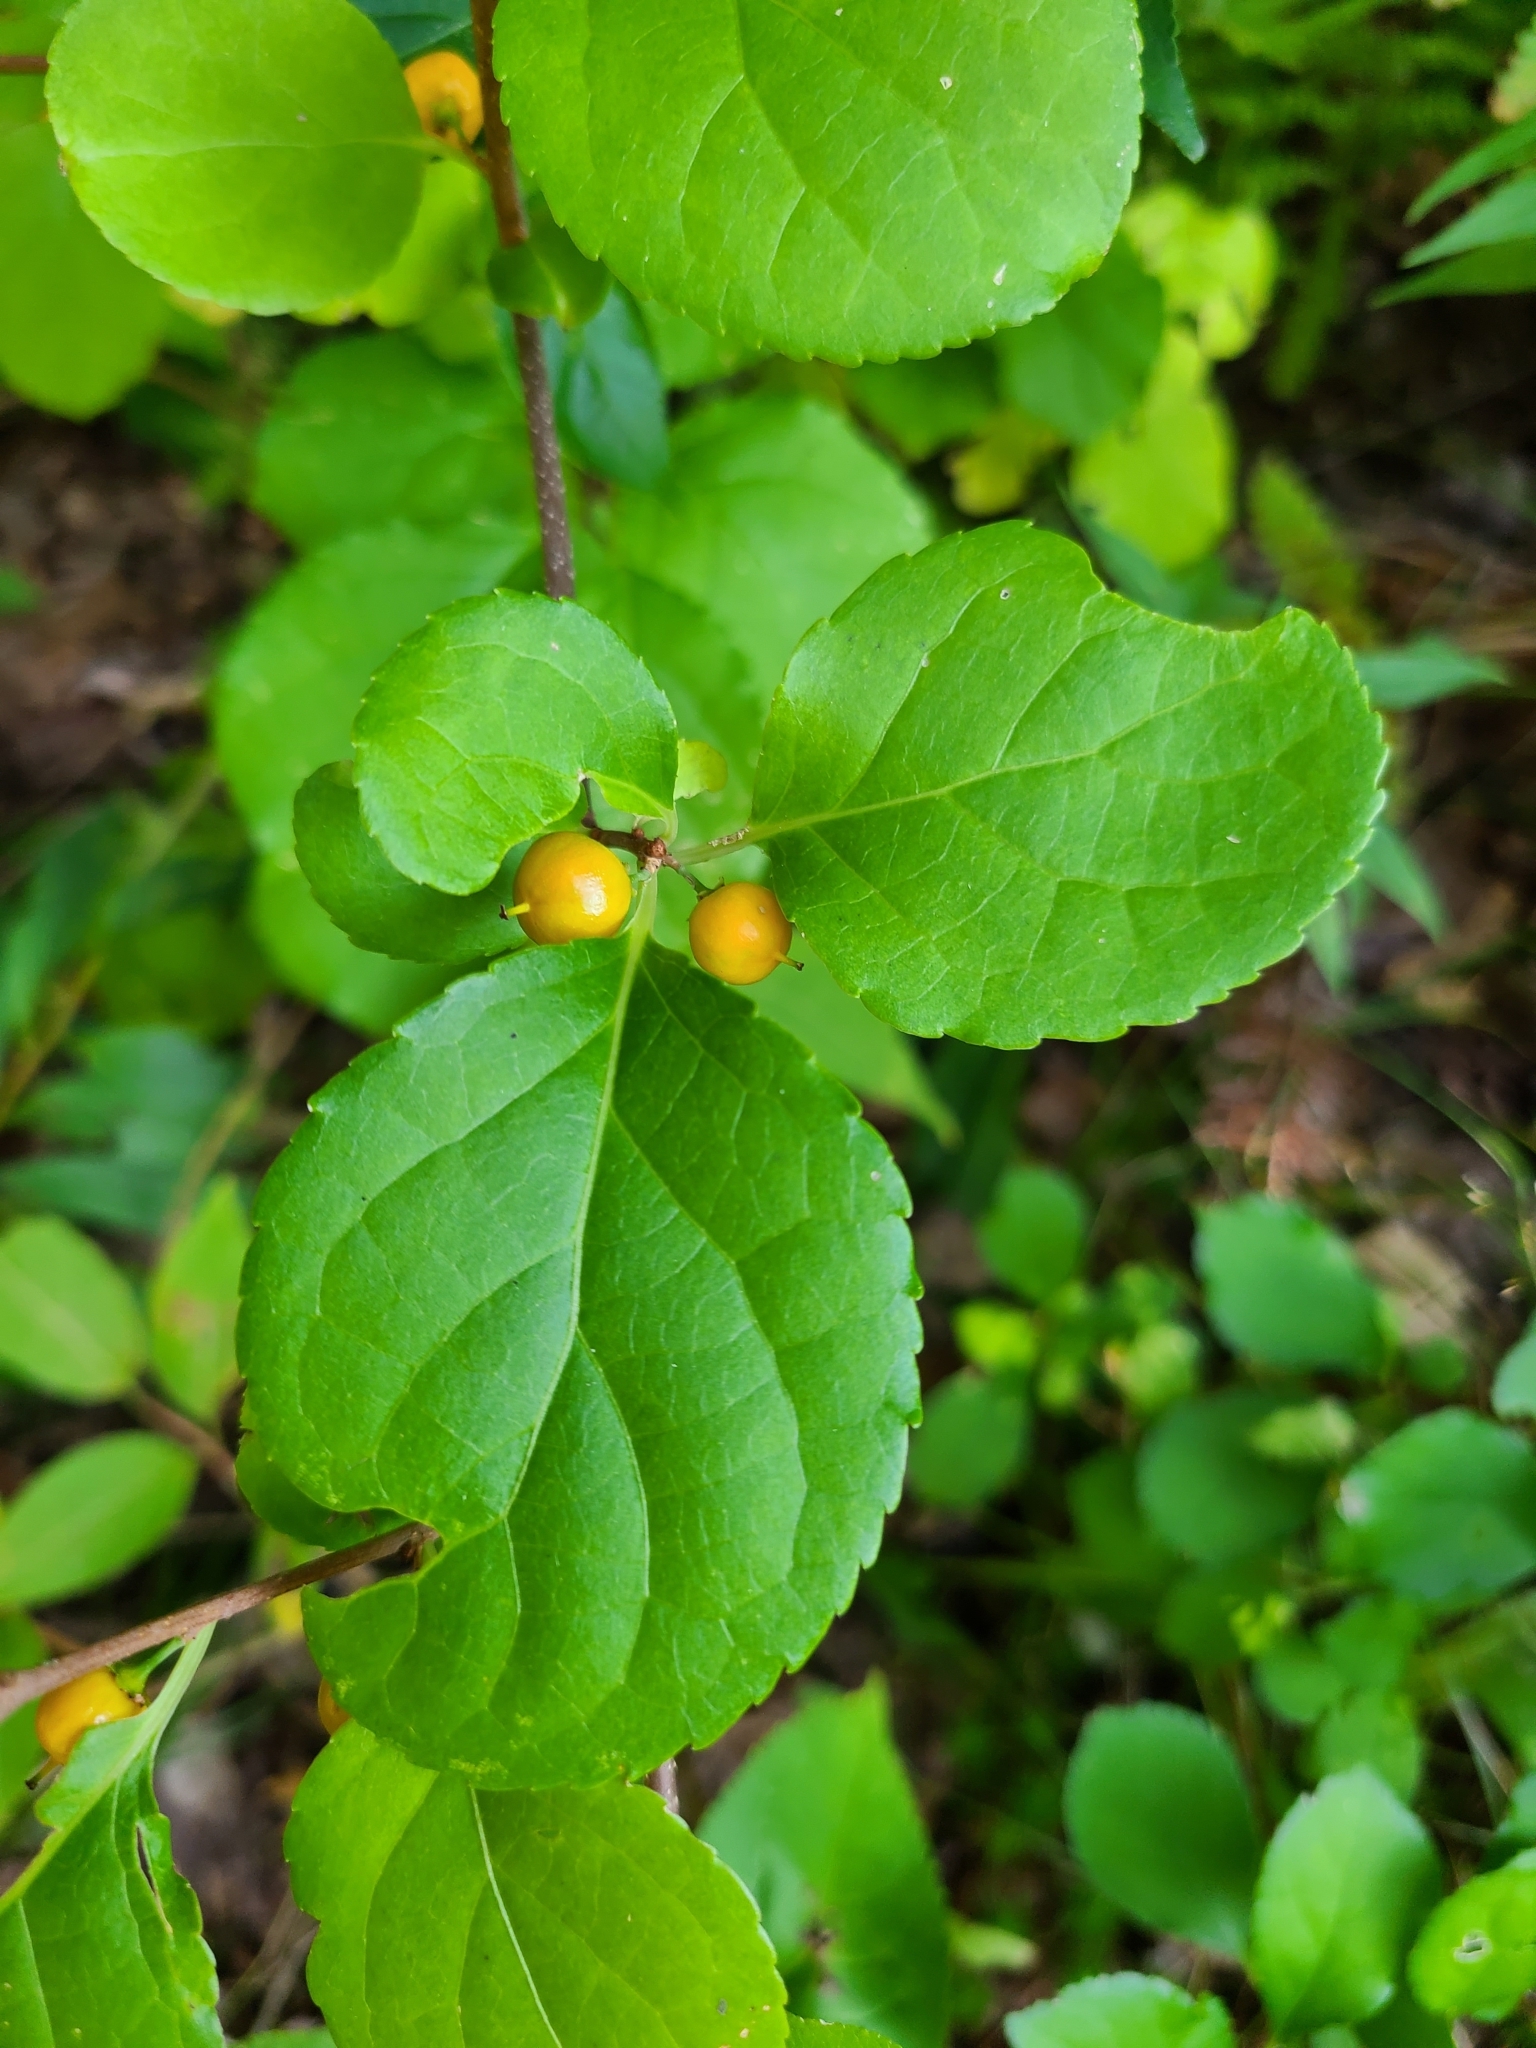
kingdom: Plantae
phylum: Tracheophyta
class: Magnoliopsida
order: Celastrales
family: Celastraceae
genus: Celastrus
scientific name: Celastrus orbiculatus
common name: Oriental bittersweet
